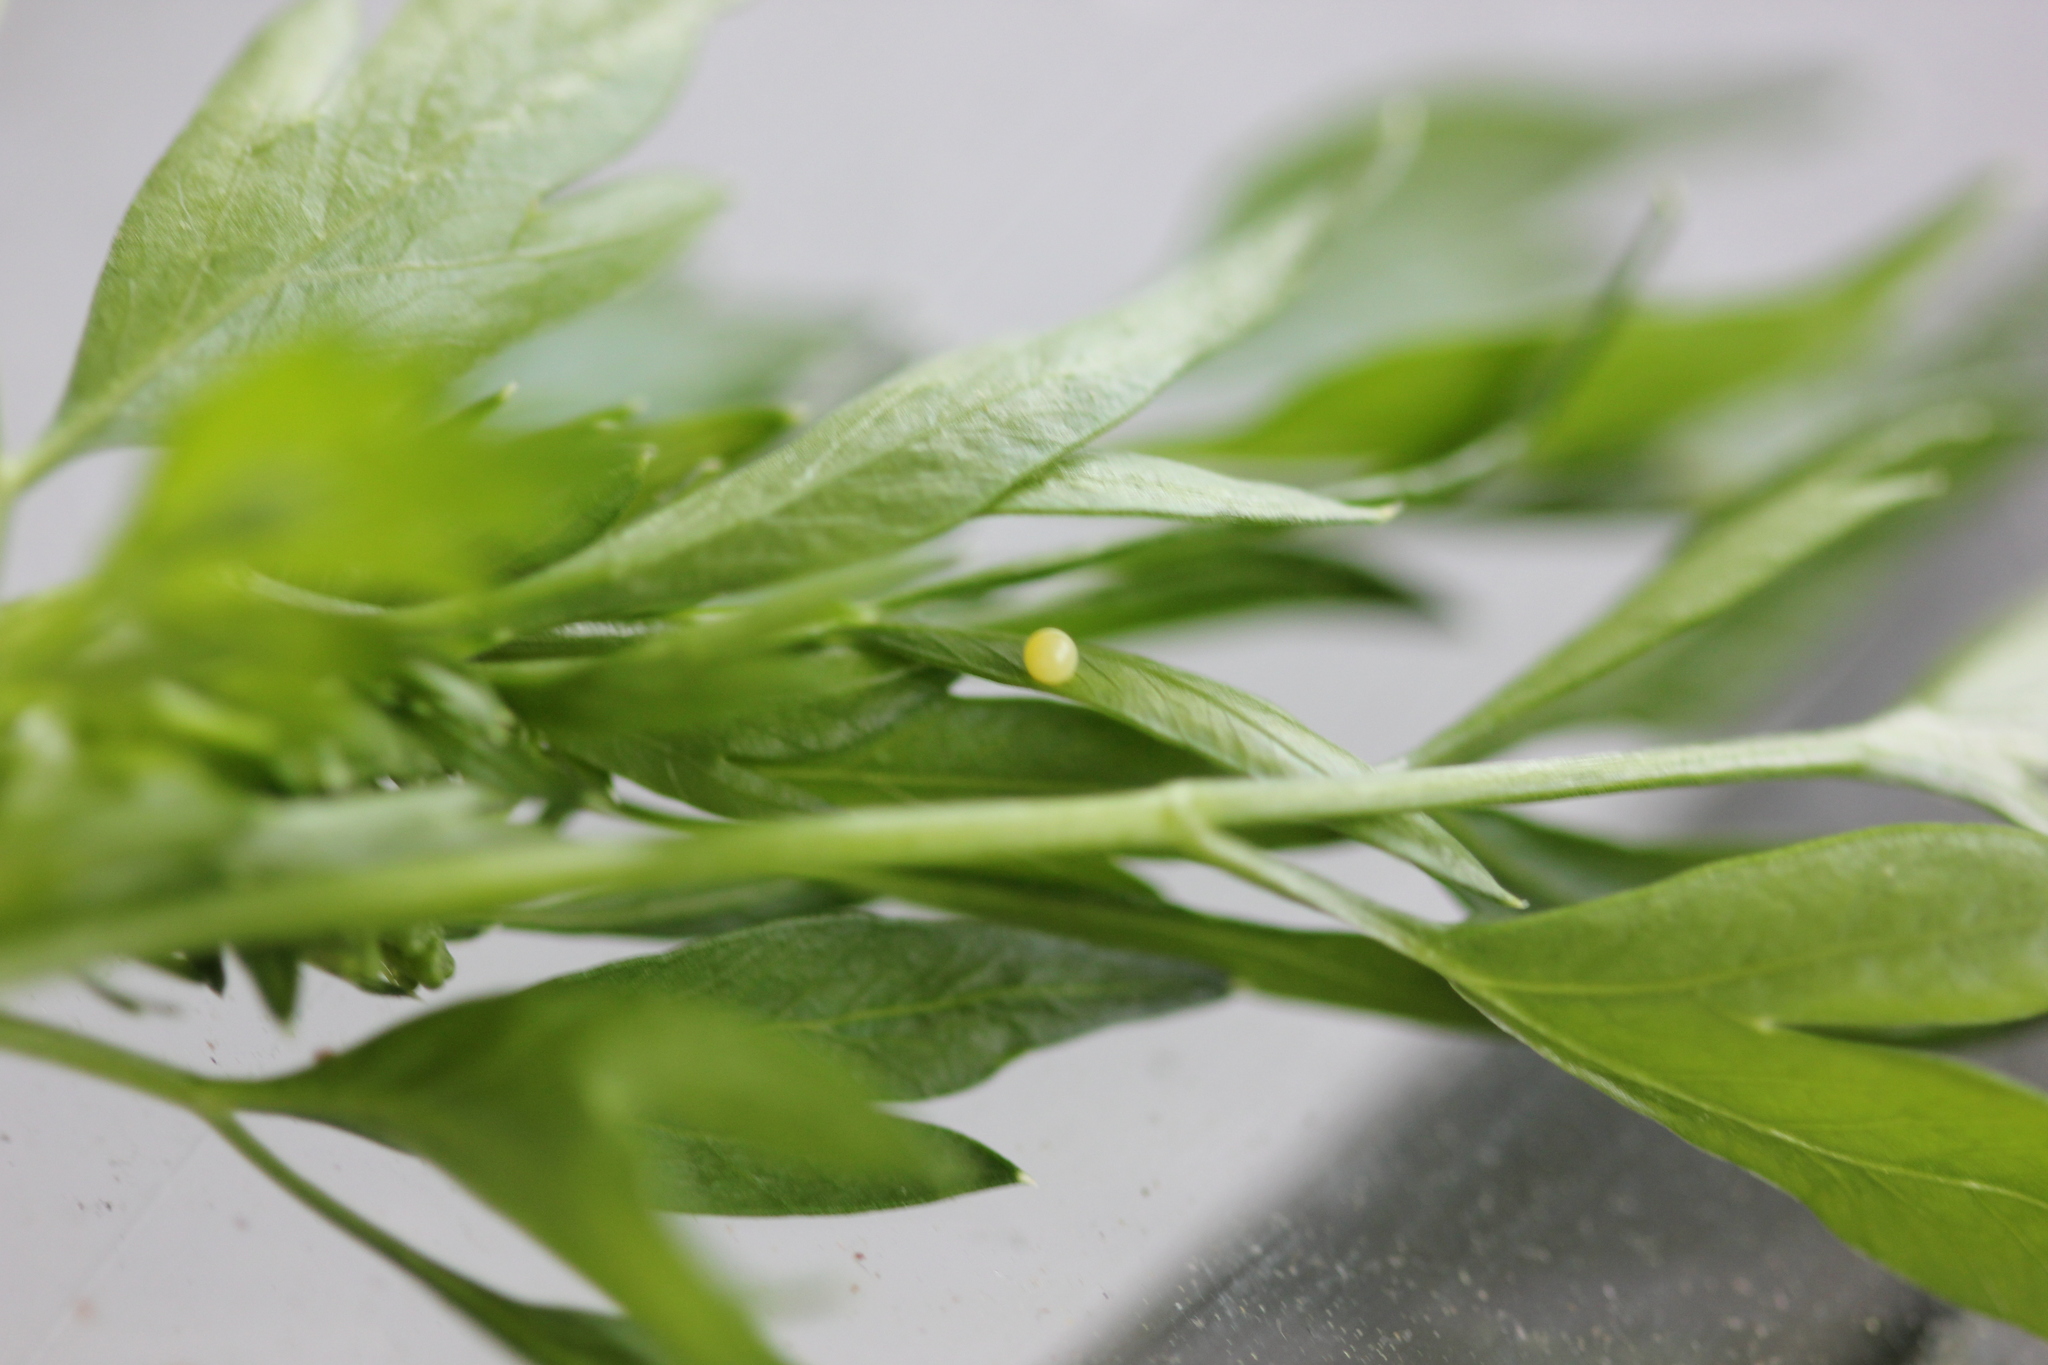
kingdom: Animalia
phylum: Arthropoda
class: Insecta
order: Lepidoptera
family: Papilionidae
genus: Papilio
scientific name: Papilio polyxenes
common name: Black swallowtail
